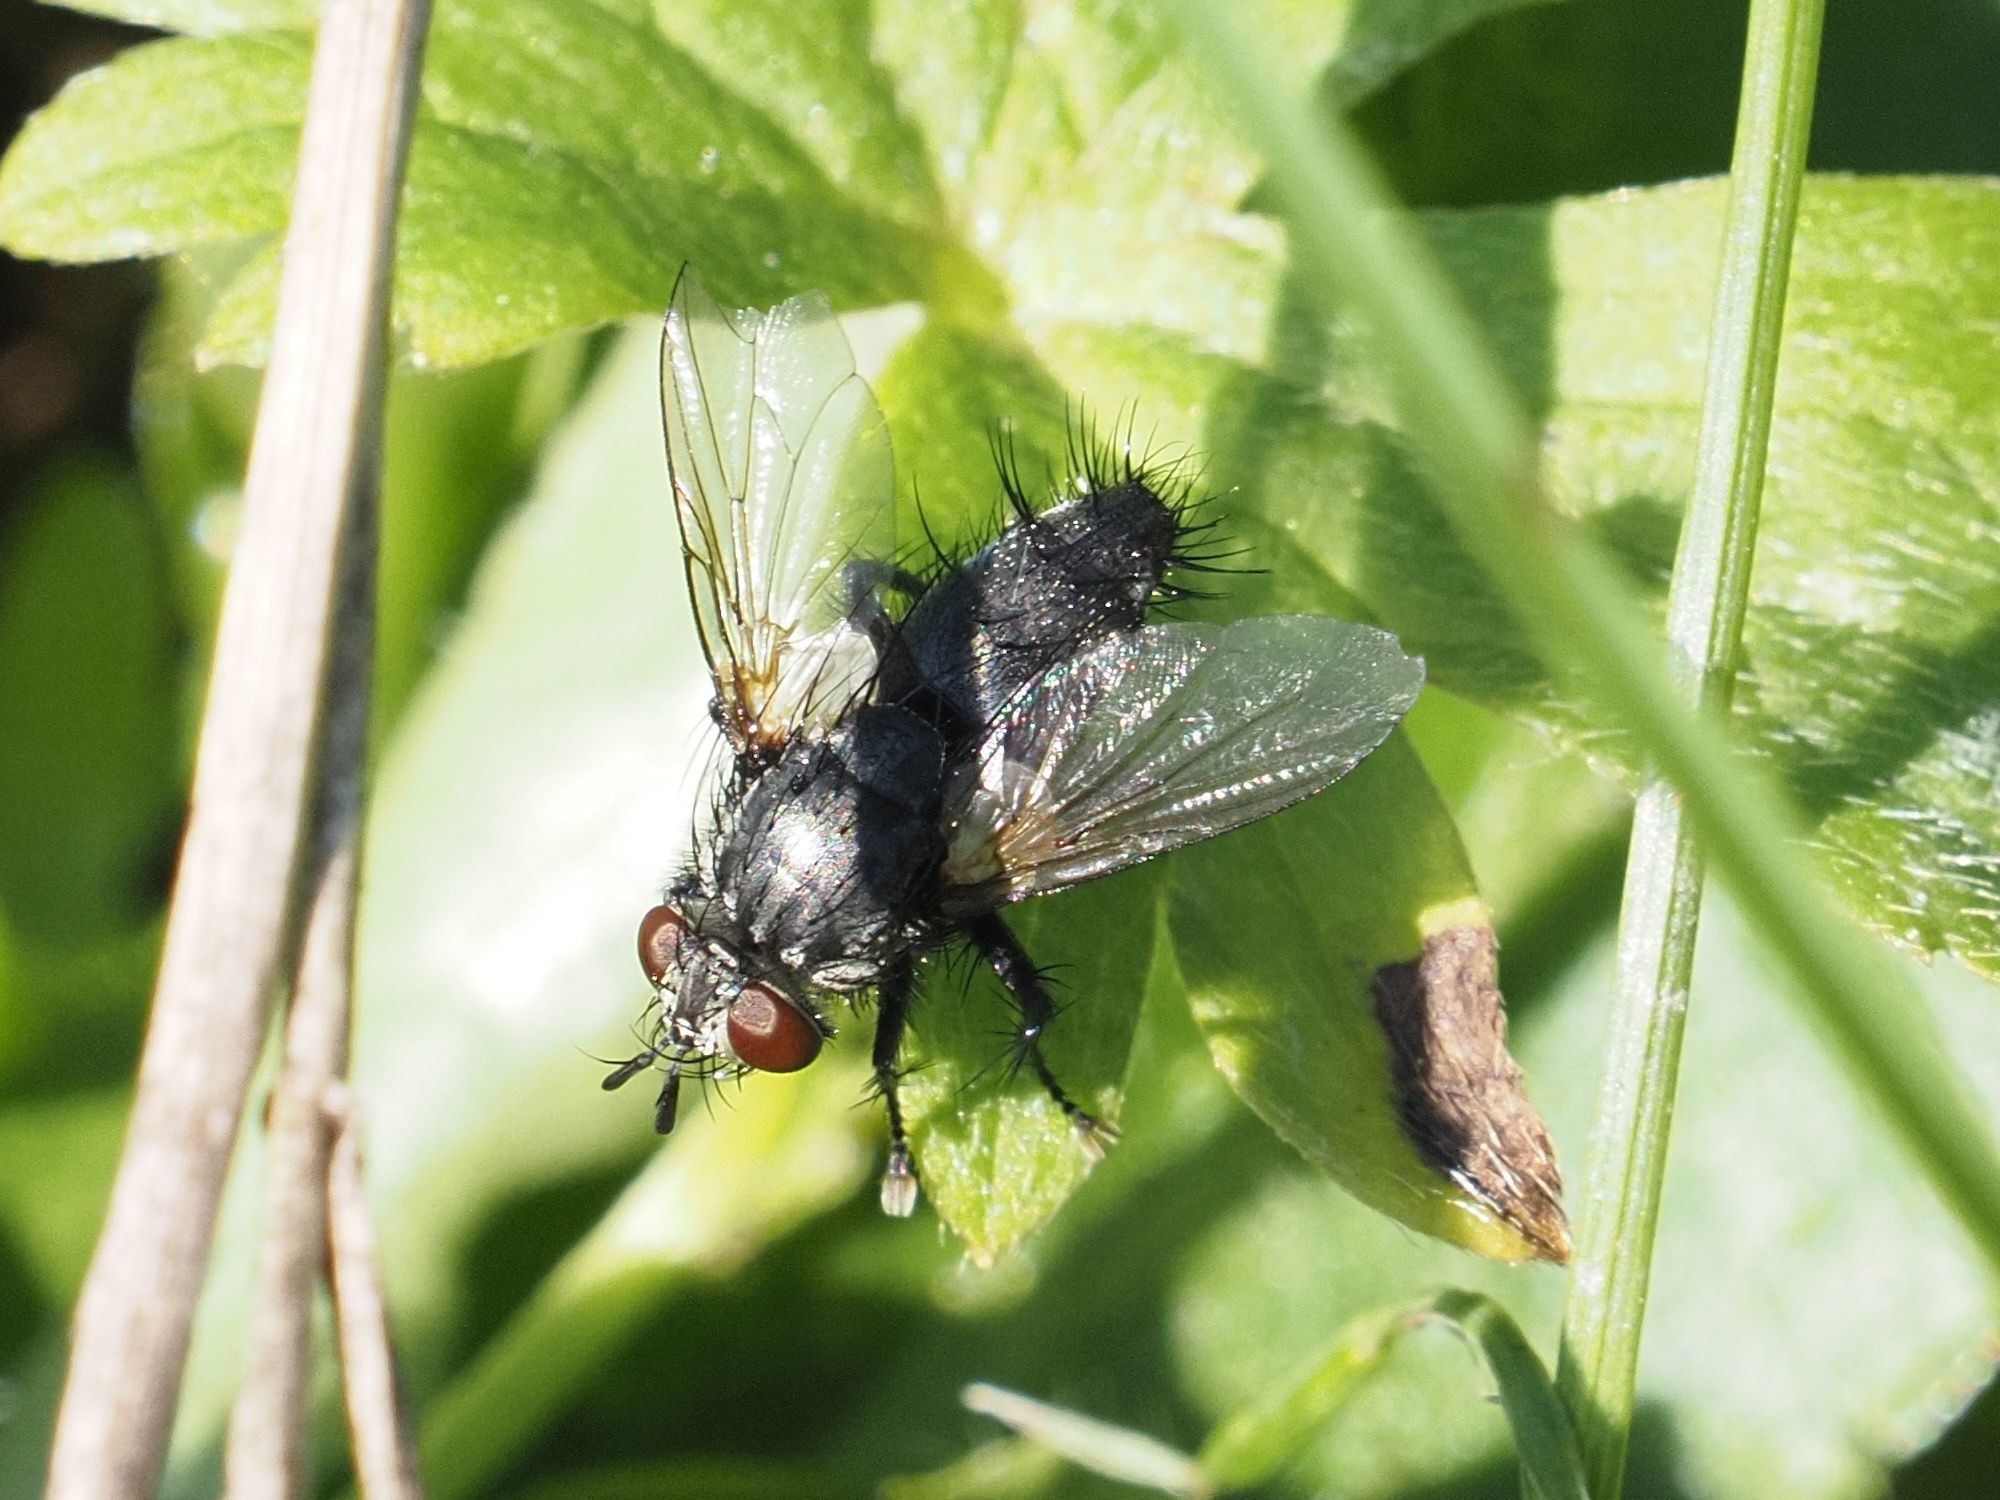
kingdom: Animalia
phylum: Arthropoda
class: Insecta
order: Diptera
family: Tachinidae
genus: Voria
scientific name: Voria ruralis
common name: Parasitic fly
